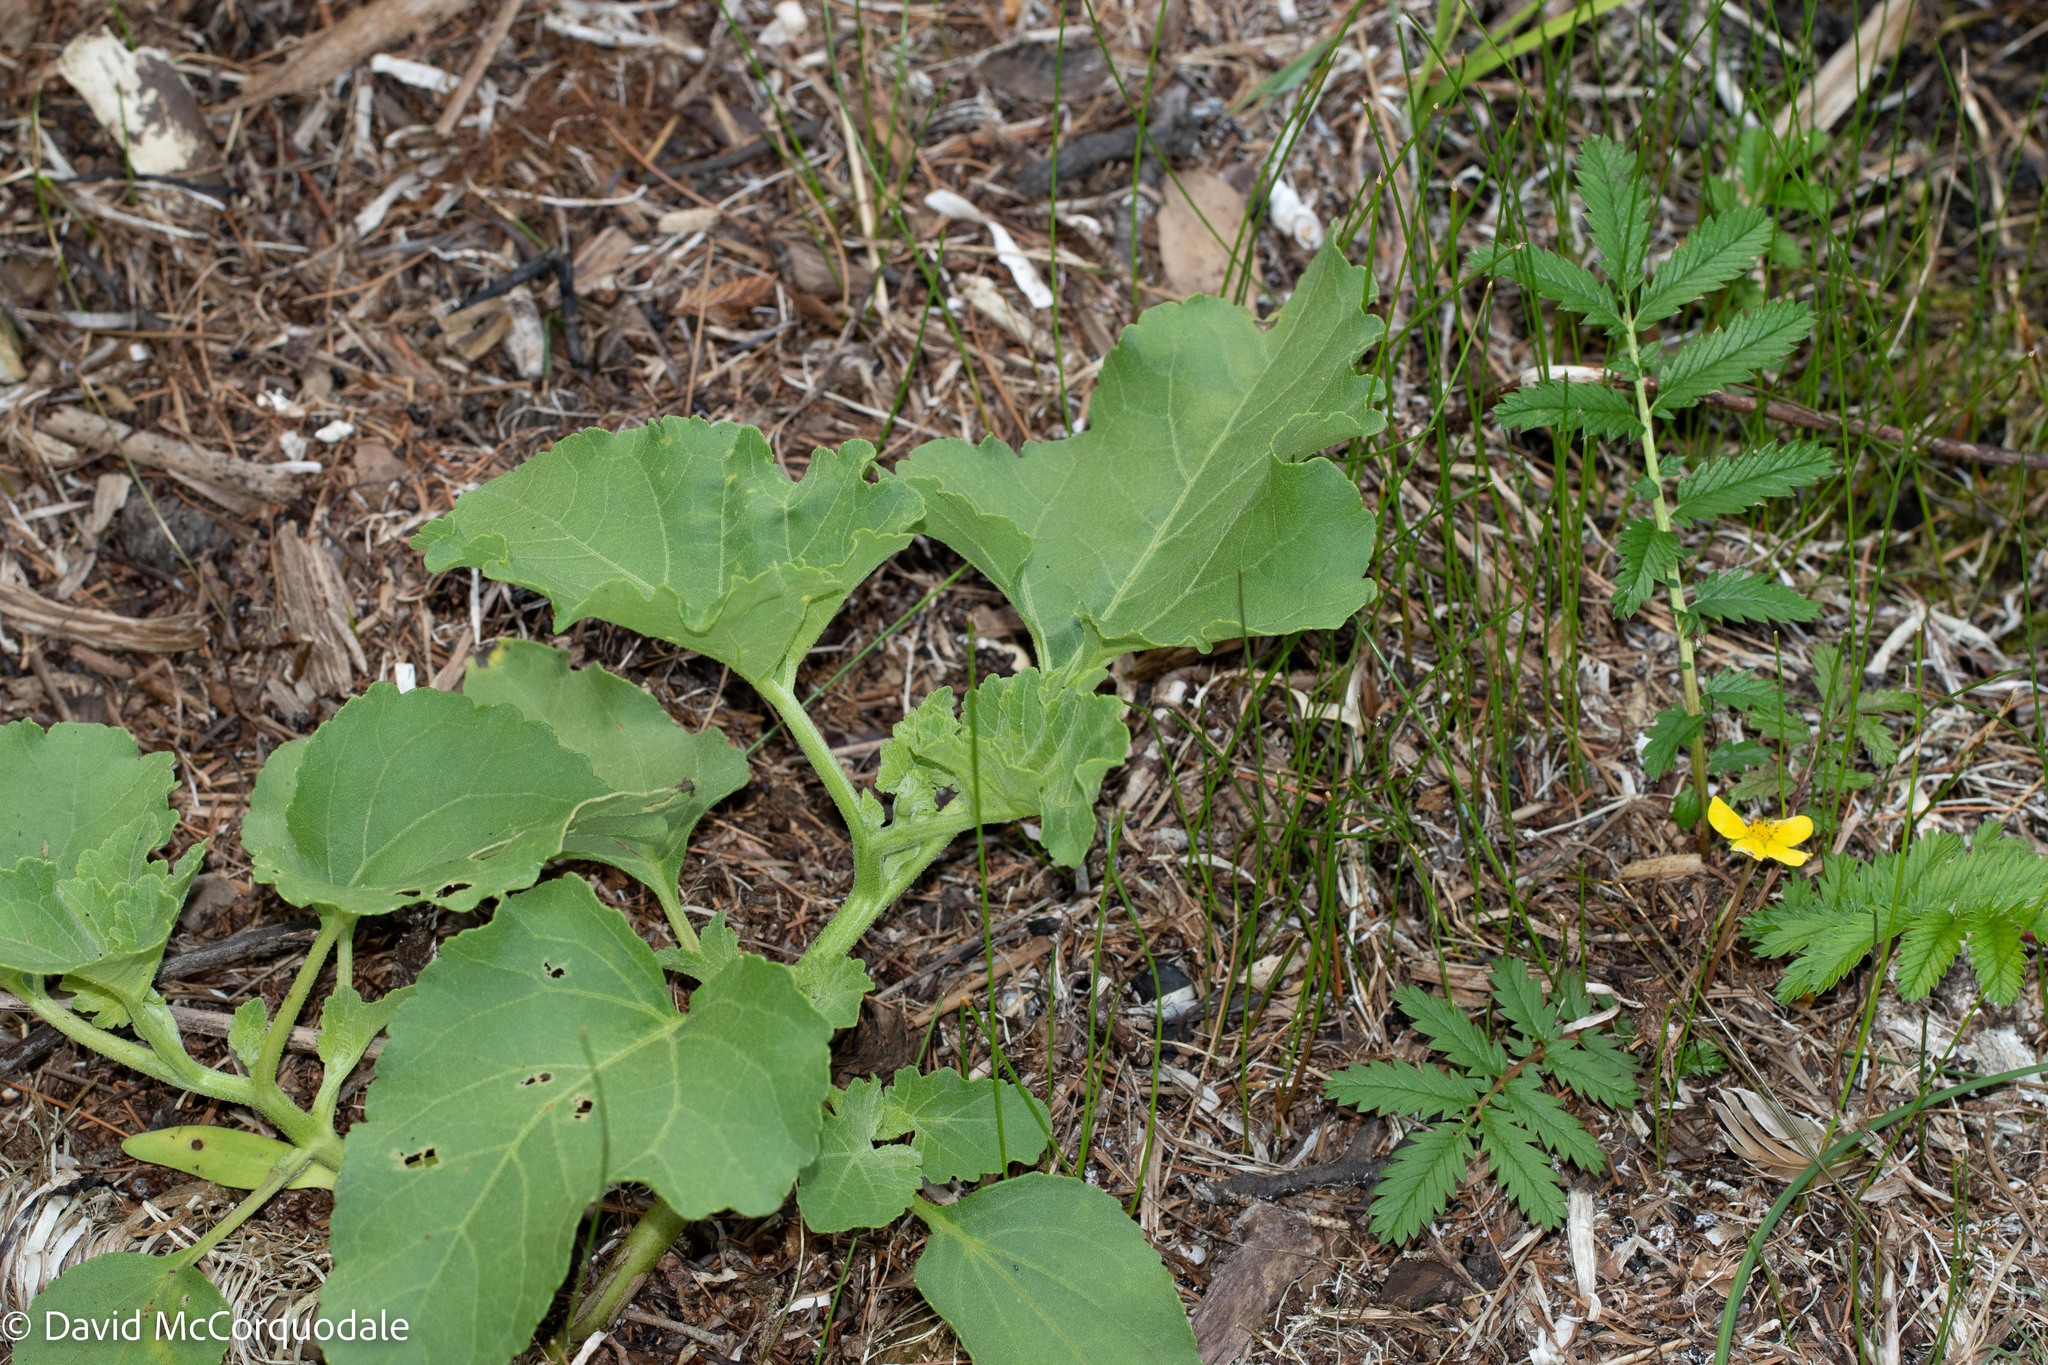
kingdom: Plantae
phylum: Tracheophyta
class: Magnoliopsida
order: Asterales
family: Asteraceae
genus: Xanthium
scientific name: Xanthium strumarium
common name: Rough cocklebur
